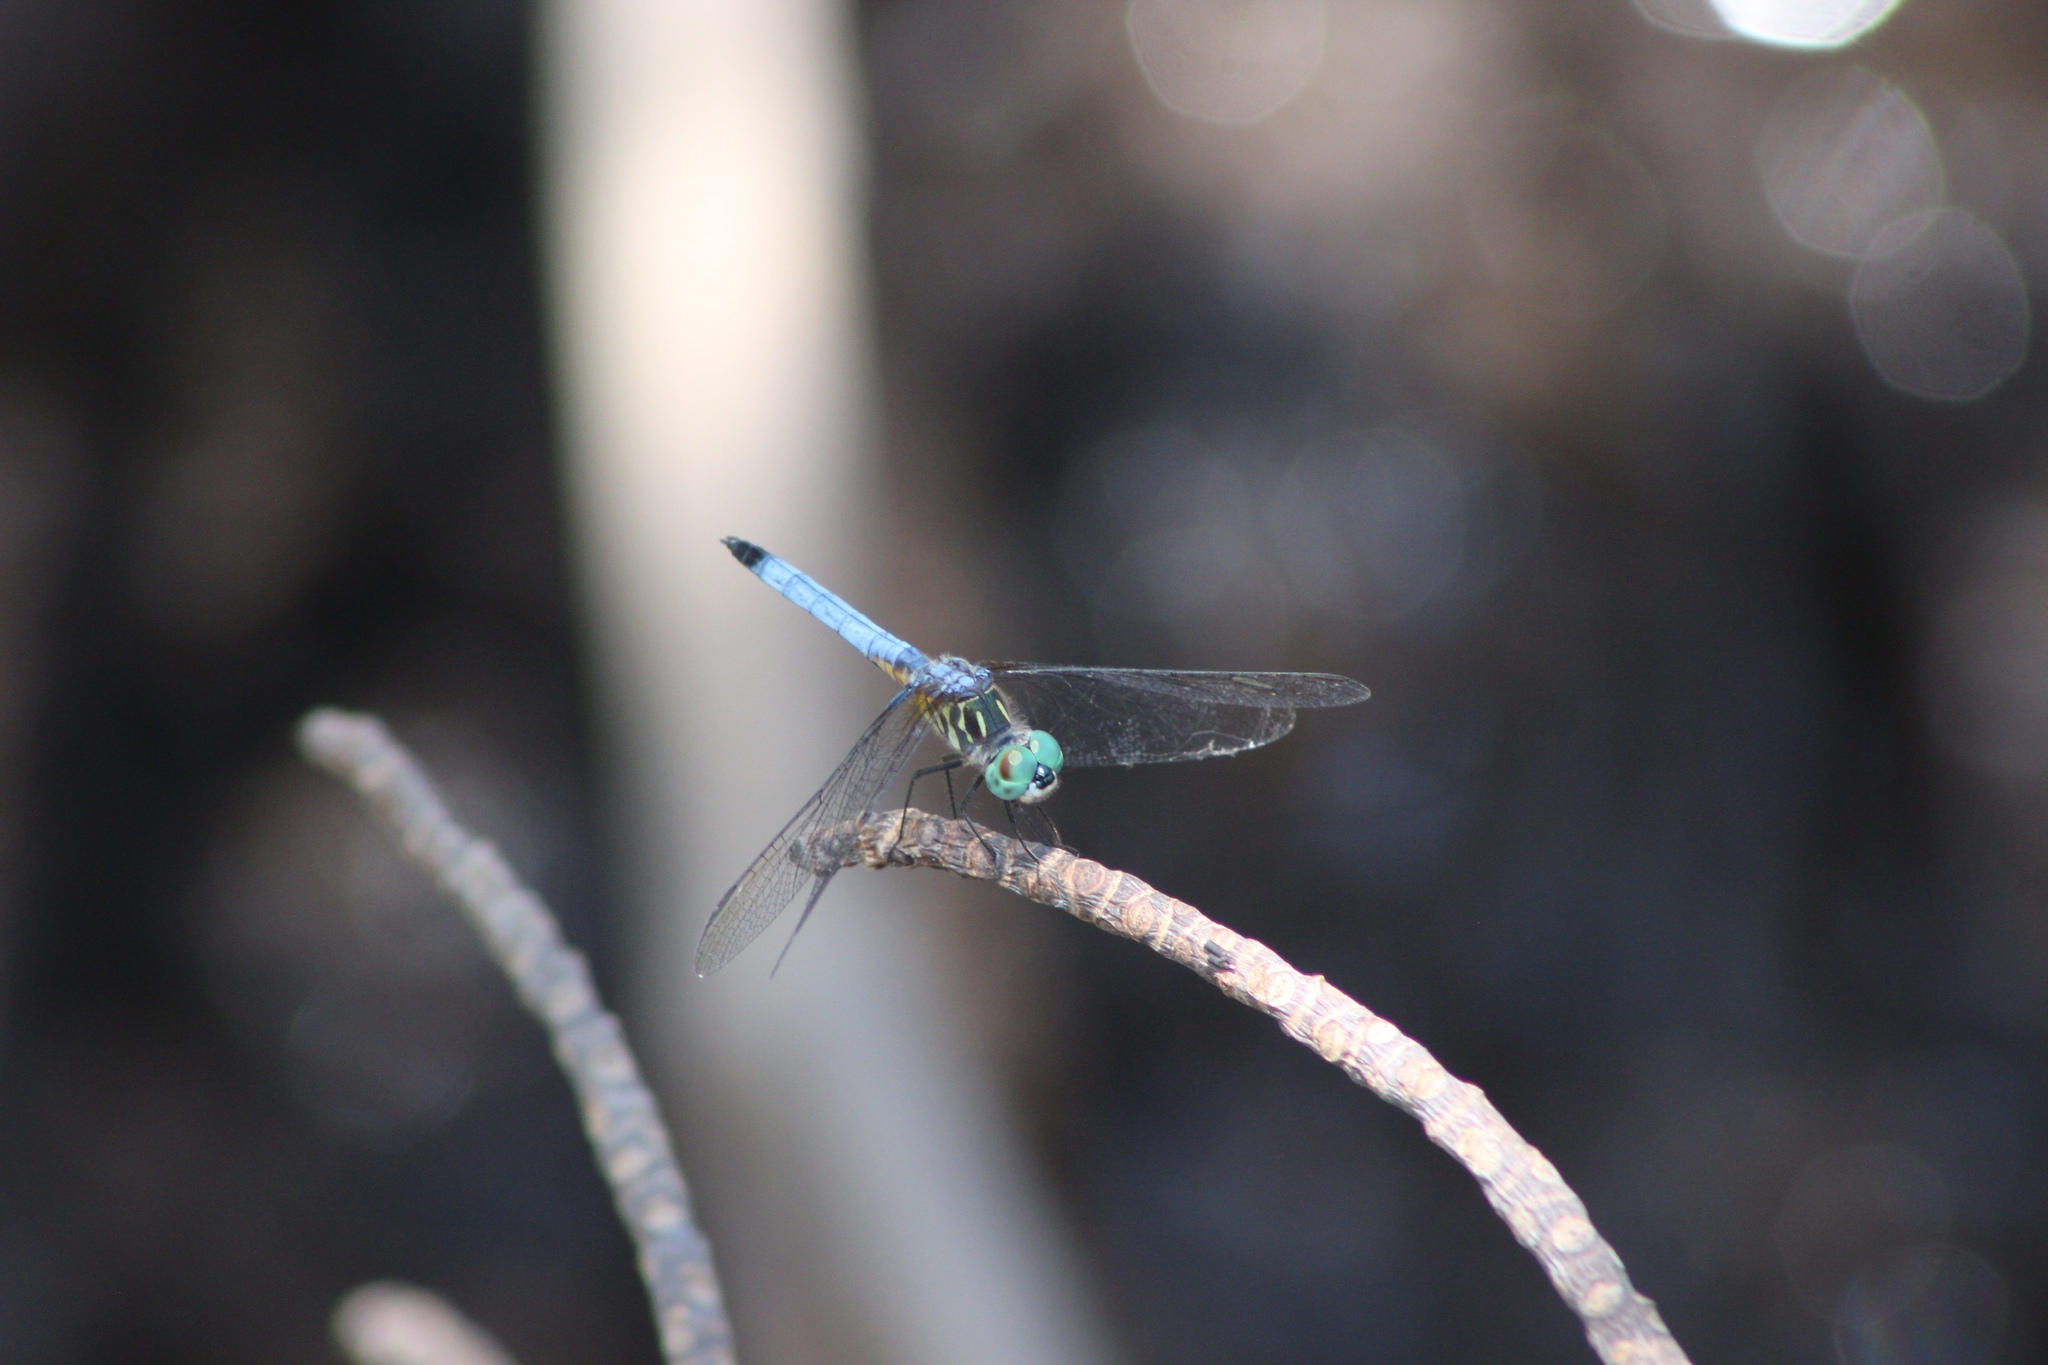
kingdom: Animalia
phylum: Arthropoda
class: Insecta
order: Odonata
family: Libellulidae
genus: Pachydiplax
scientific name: Pachydiplax longipennis
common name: Blue dasher
